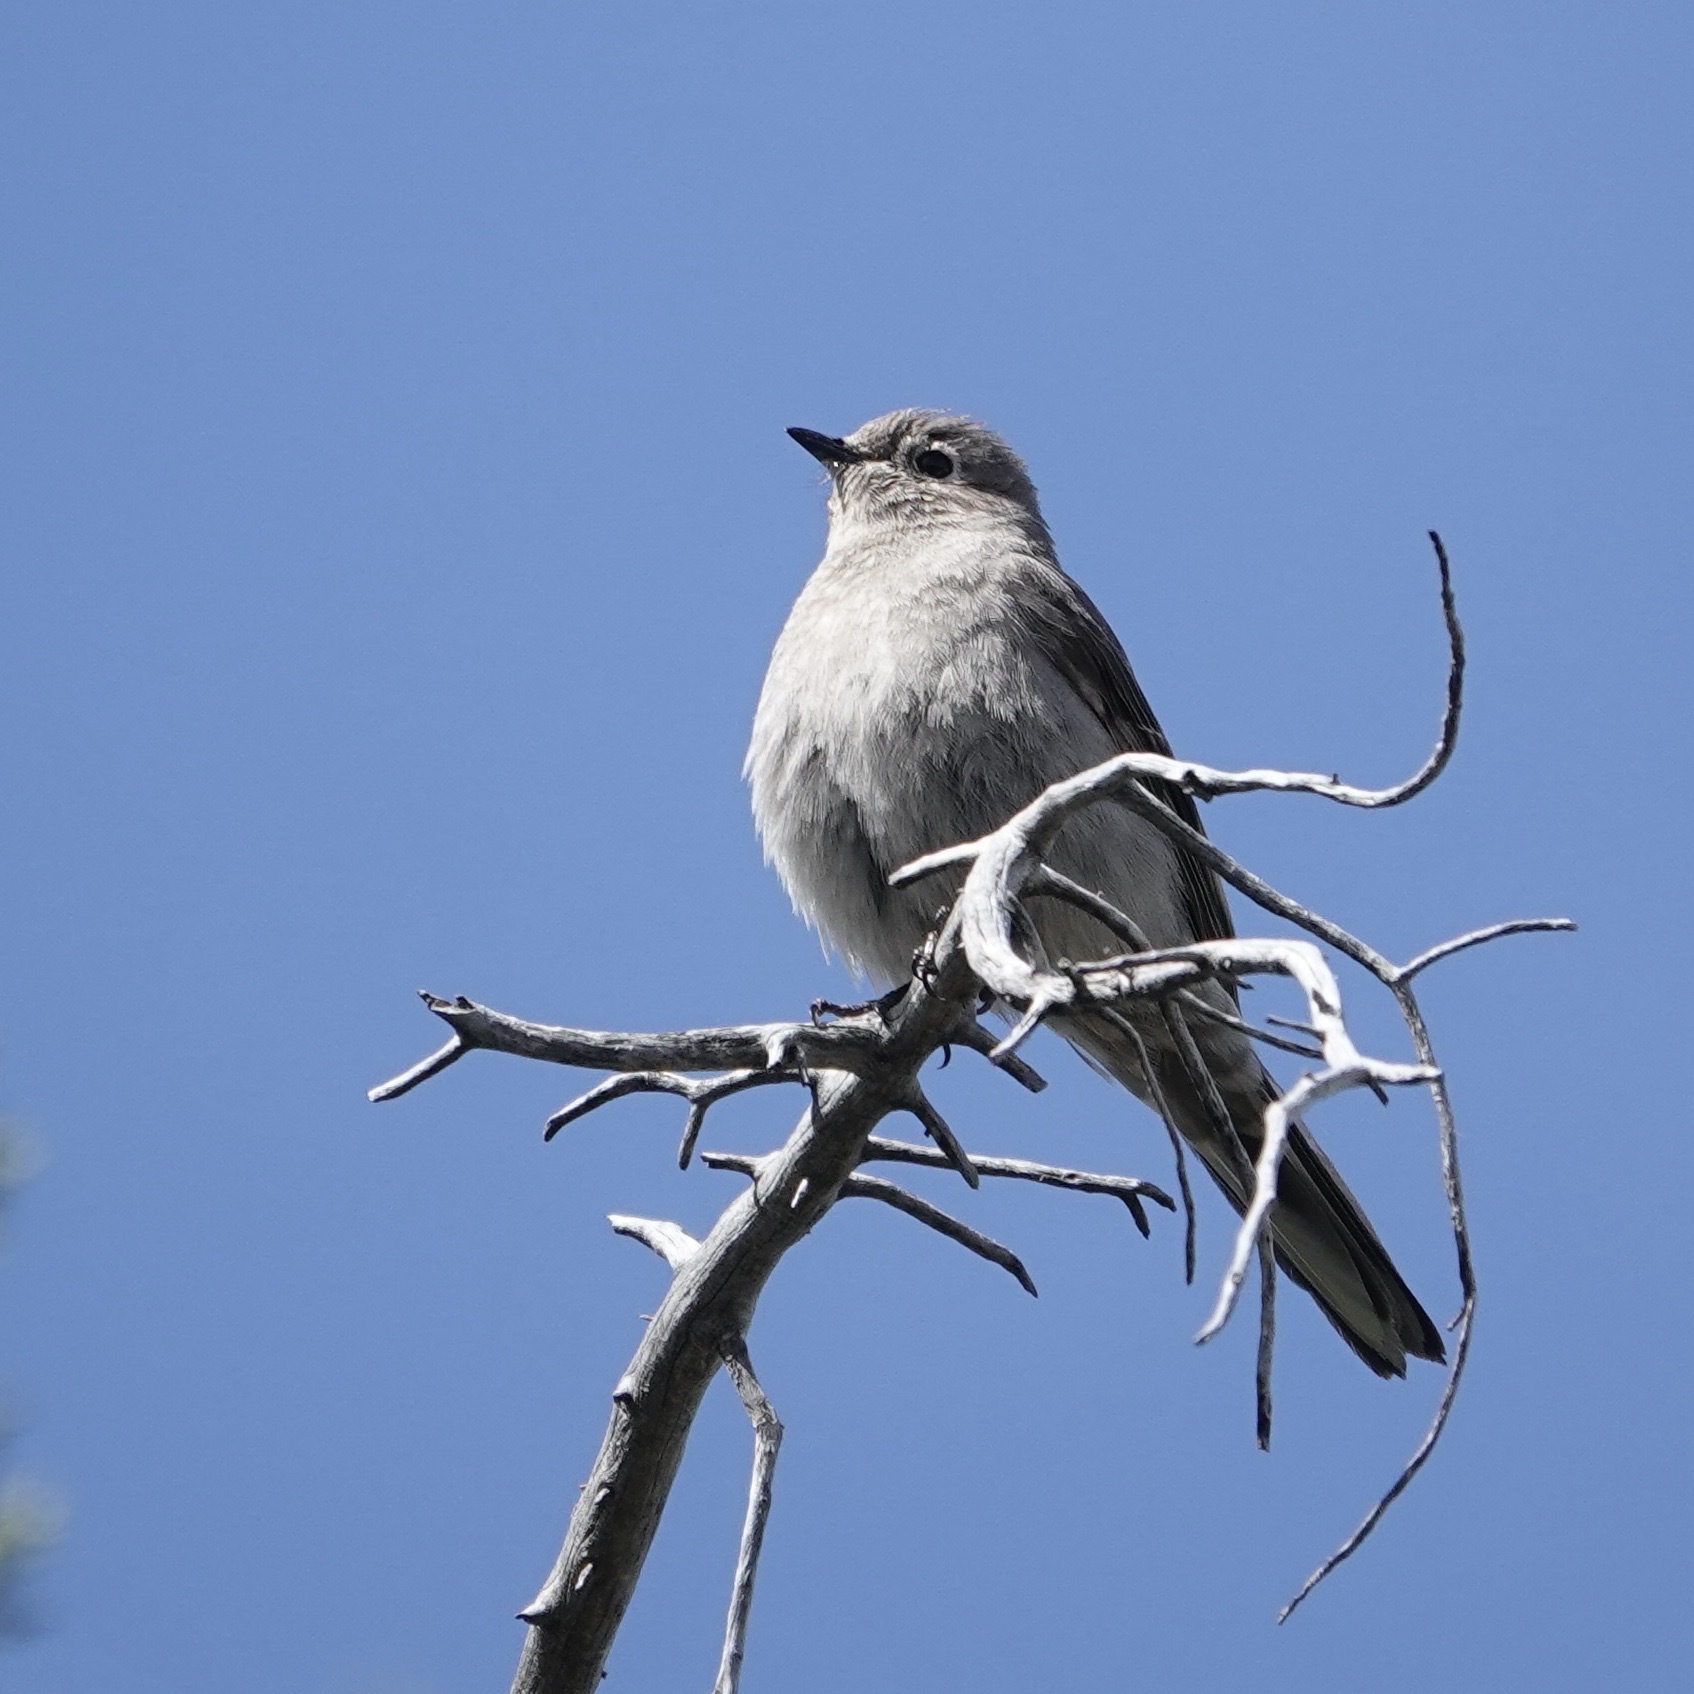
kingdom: Animalia
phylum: Chordata
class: Aves
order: Passeriformes
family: Turdidae
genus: Myadestes
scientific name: Myadestes townsendi
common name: Townsend's solitaire
